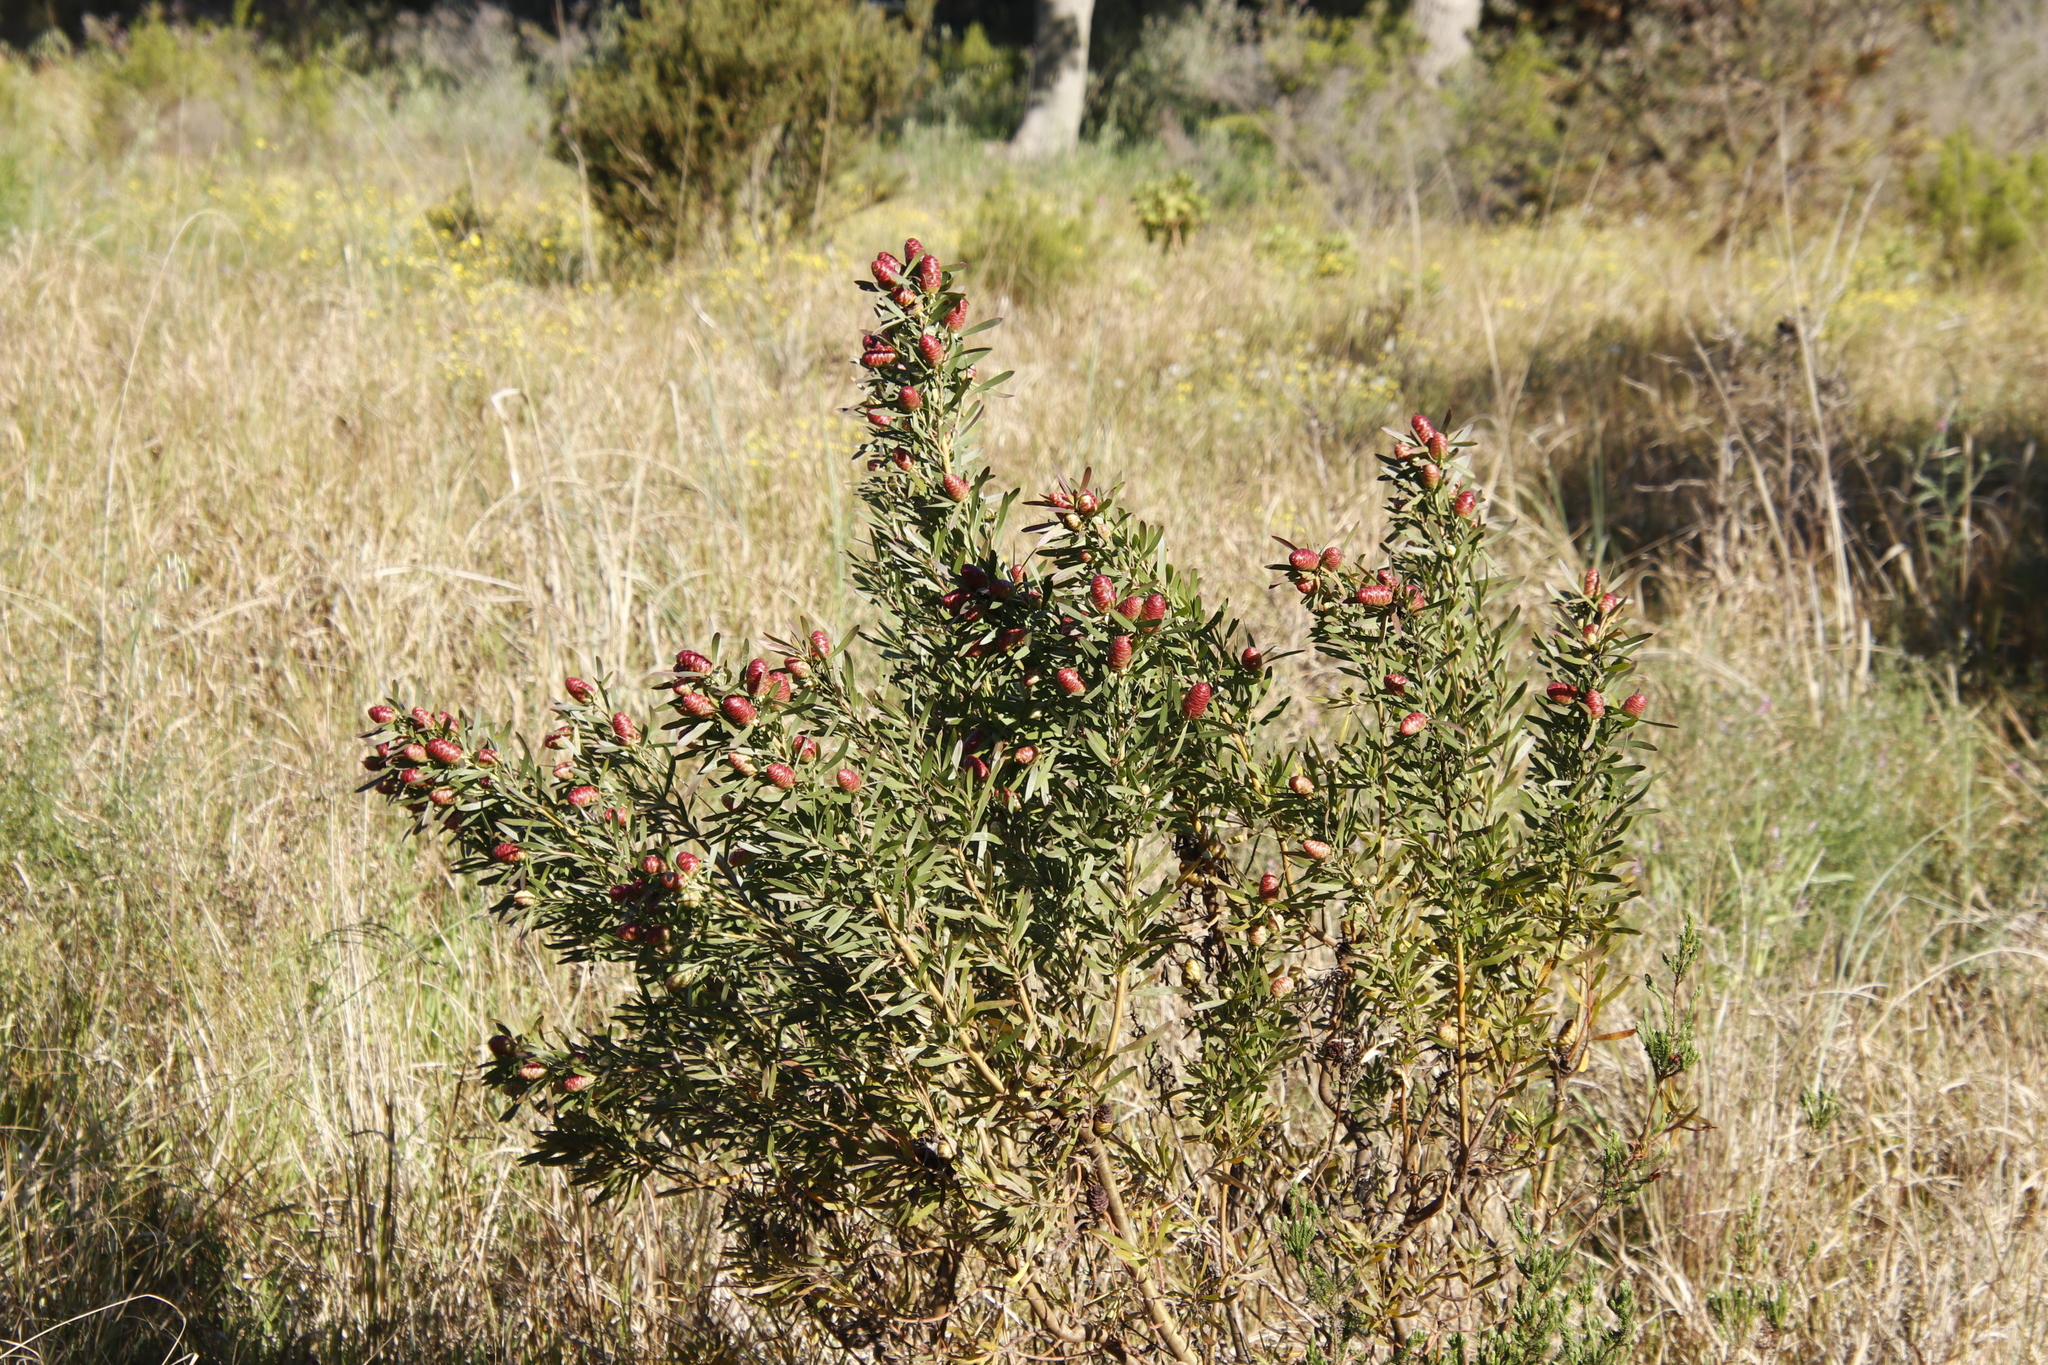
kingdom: Plantae
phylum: Tracheophyta
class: Magnoliopsida
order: Proteales
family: Proteaceae
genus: Leucadendron
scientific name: Leucadendron macowanii
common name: Acacia-leaf conebush
